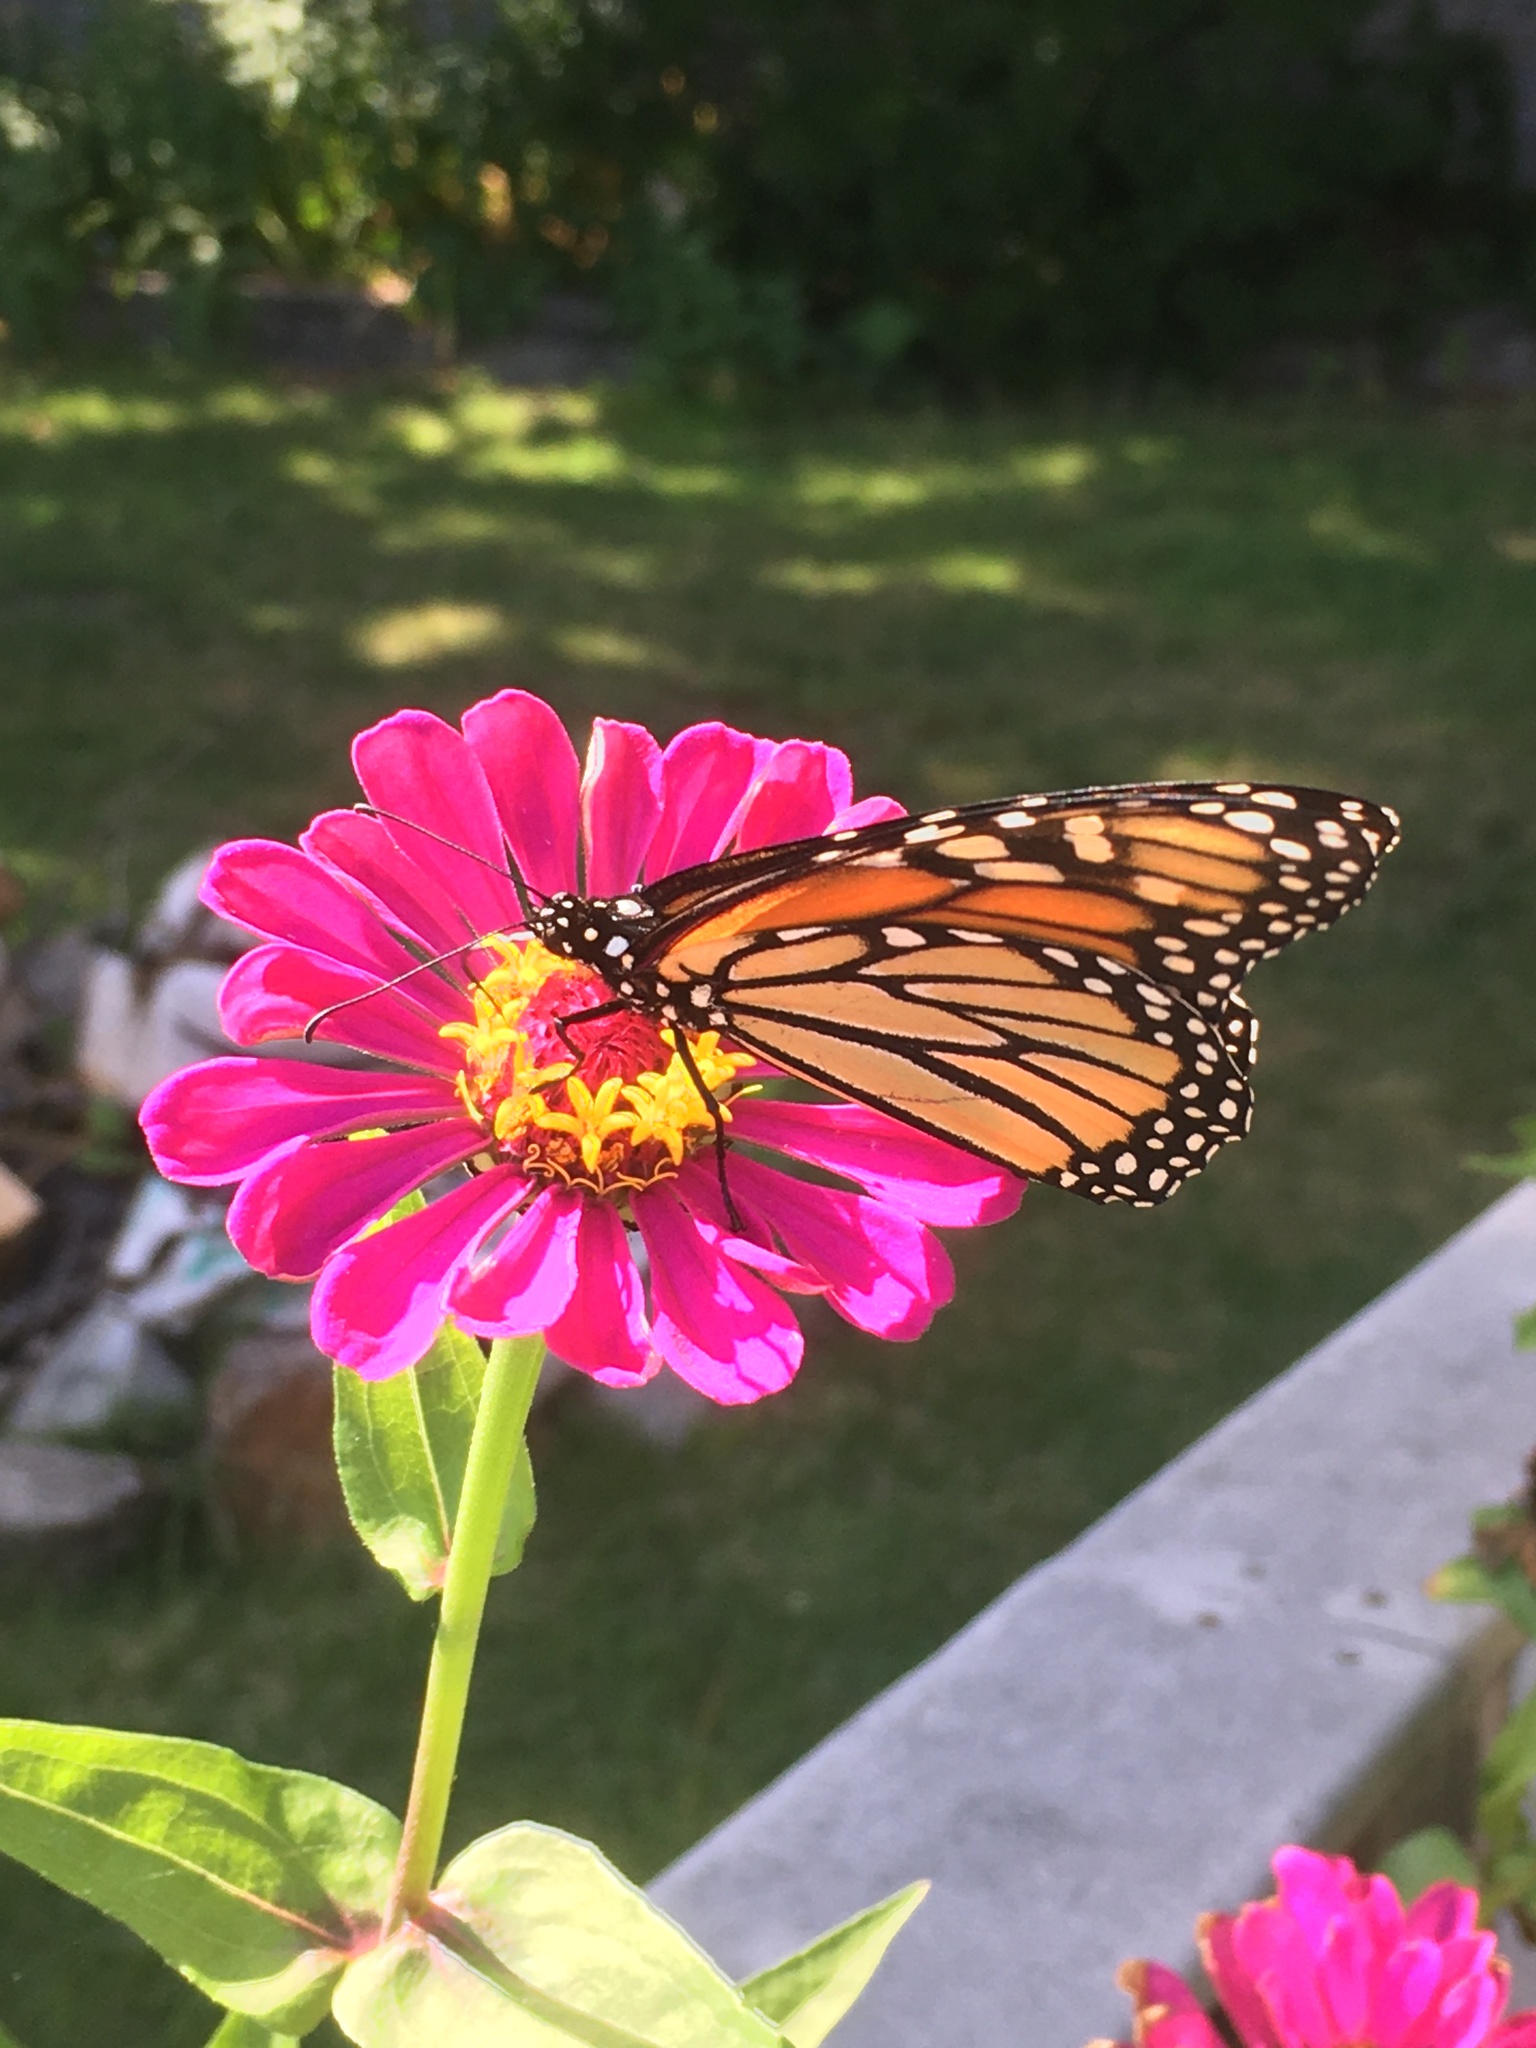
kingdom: Animalia
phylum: Arthropoda
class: Insecta
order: Lepidoptera
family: Nymphalidae
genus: Danaus
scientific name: Danaus plexippus
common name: Monarch
